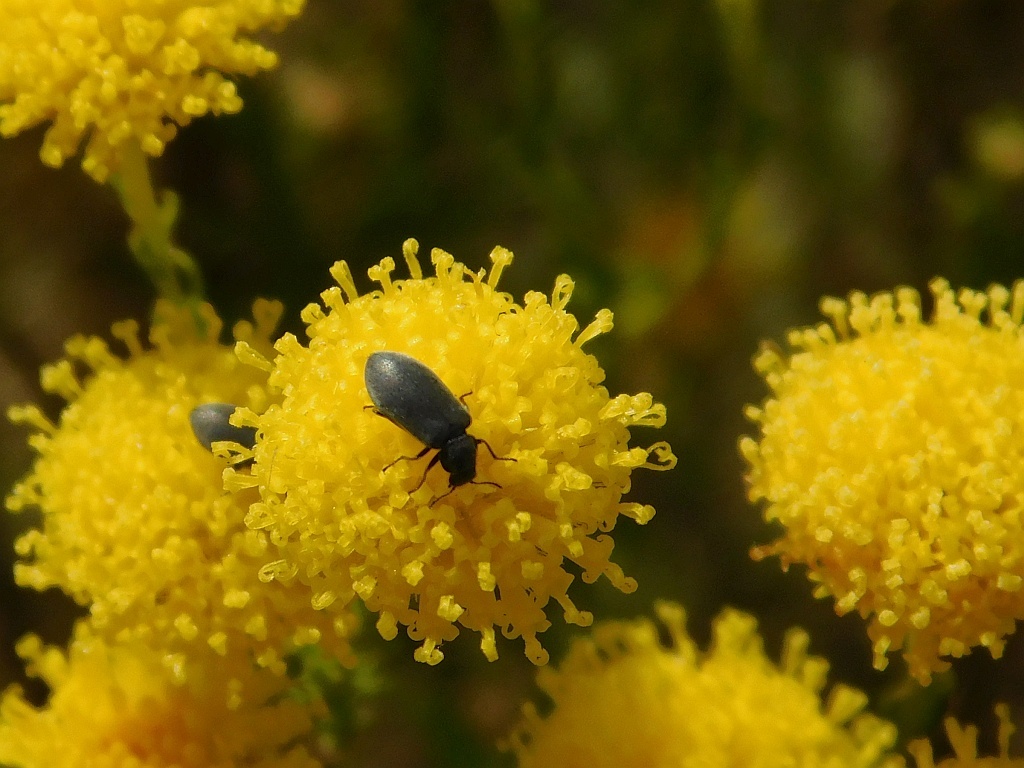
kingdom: Plantae
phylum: Tracheophyta
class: Magnoliopsida
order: Asterales
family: Asteraceae
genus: Chrysocoma
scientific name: Chrysocoma ciliata
